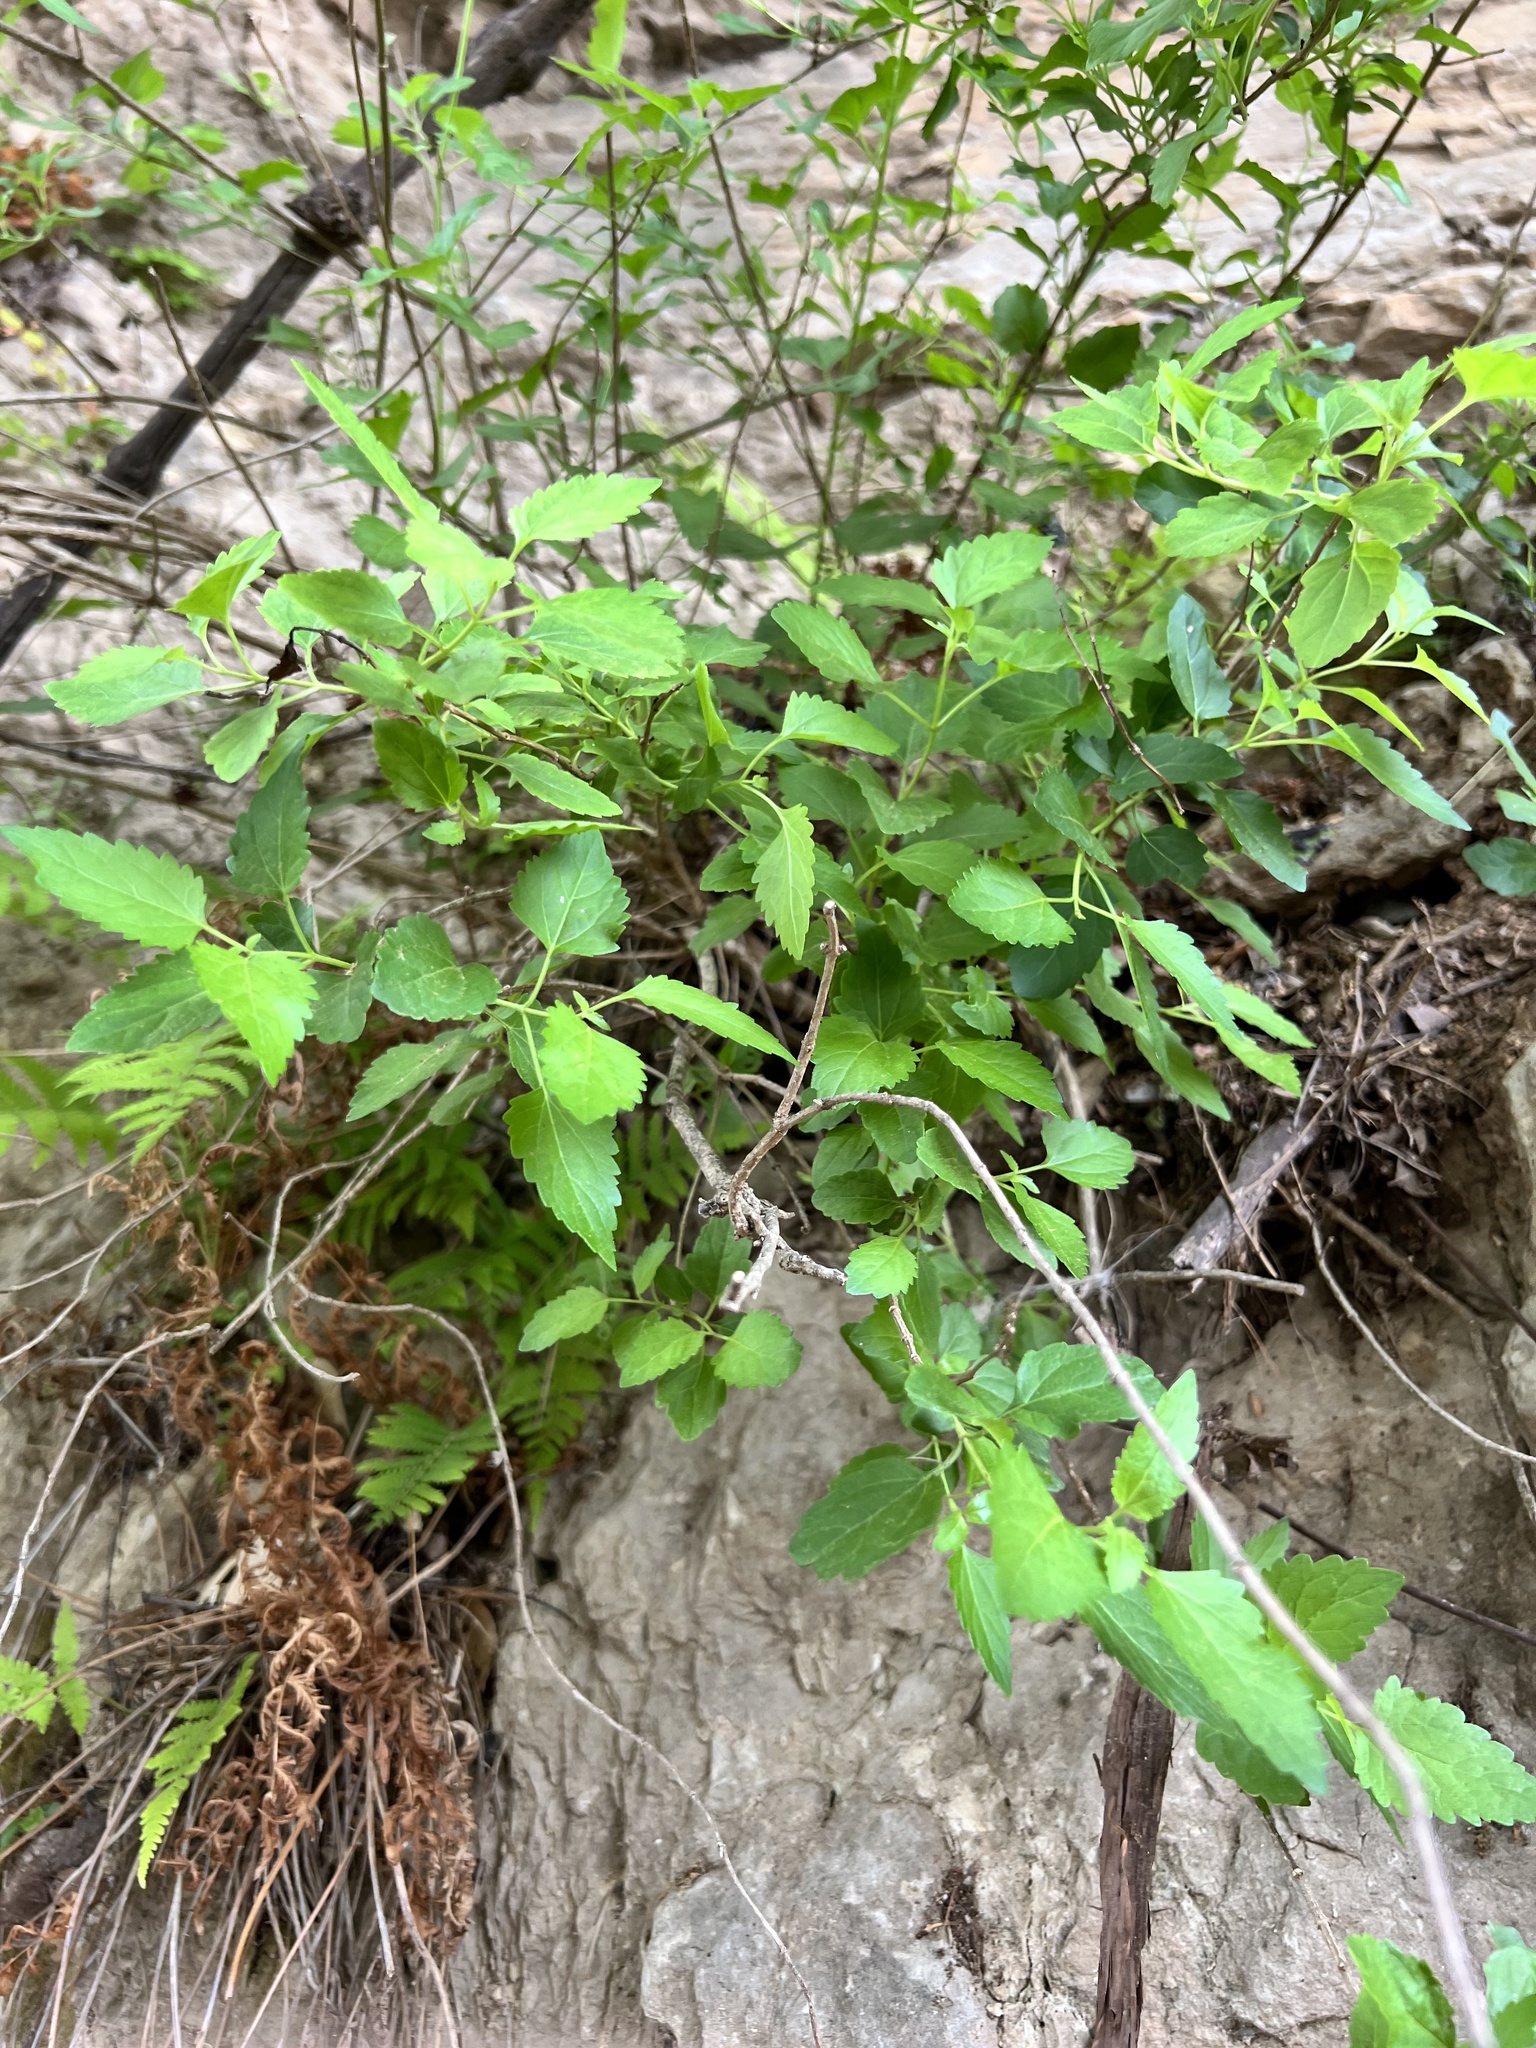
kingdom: Plantae
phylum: Tracheophyta
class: Magnoliopsida
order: Asterales
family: Asteraceae
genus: Ageratina
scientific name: Ageratina havanensis
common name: Havana snakeroot
